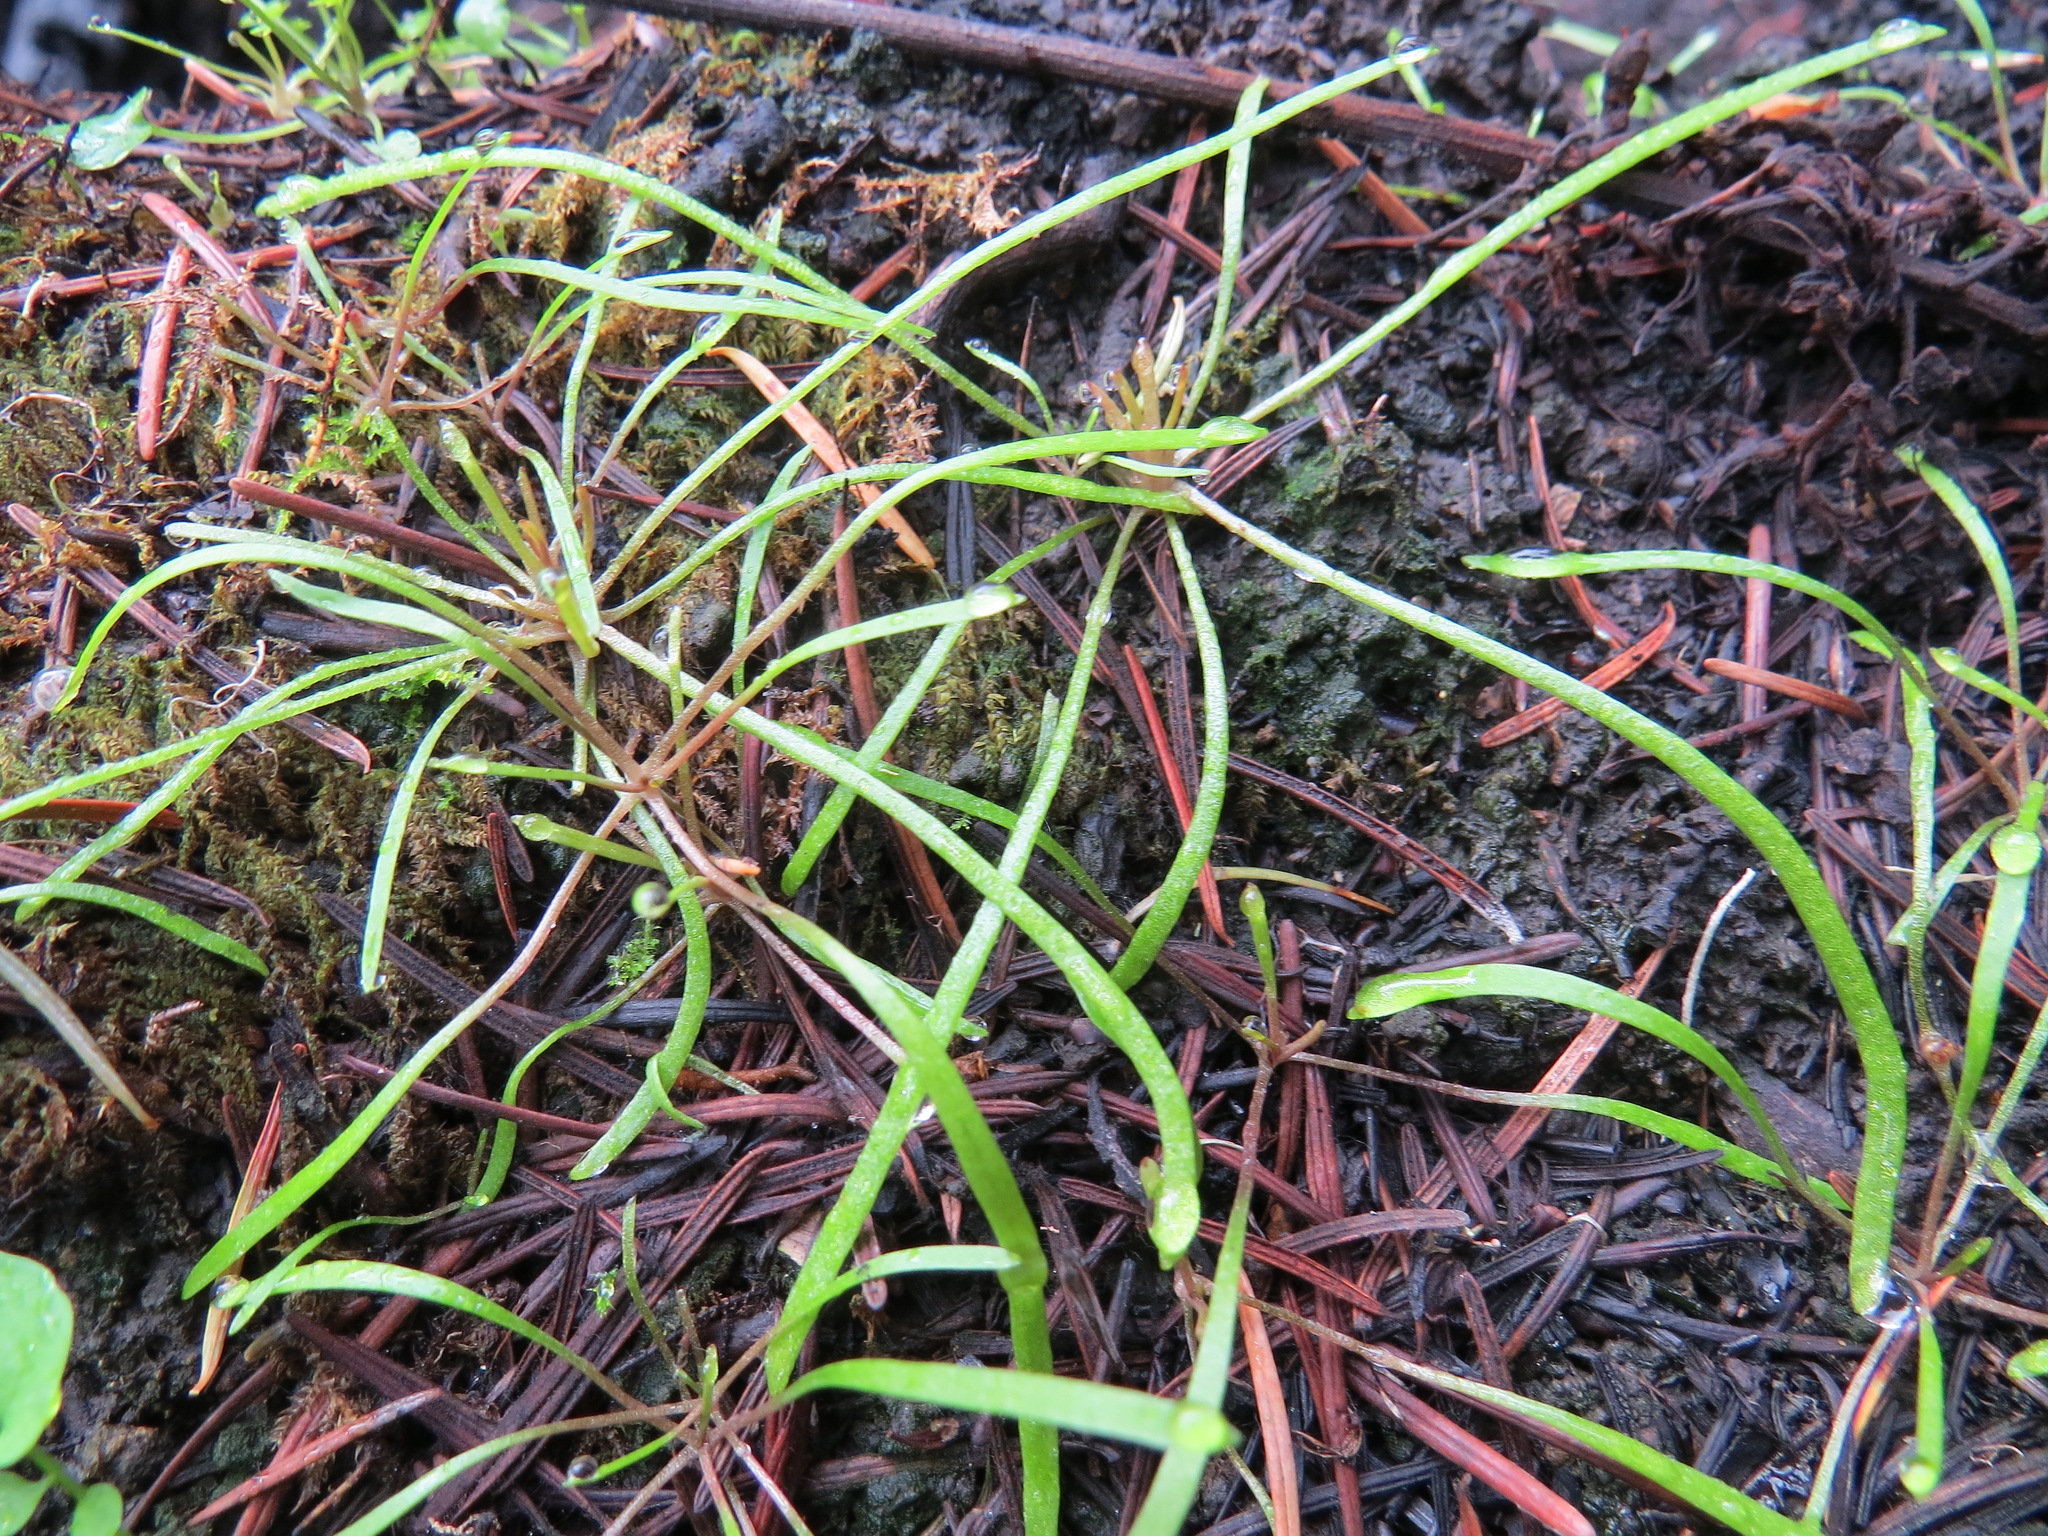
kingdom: Plantae
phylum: Tracheophyta
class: Magnoliopsida
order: Caryophyllales
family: Montiaceae
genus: Claytonia
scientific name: Claytonia perfoliata
